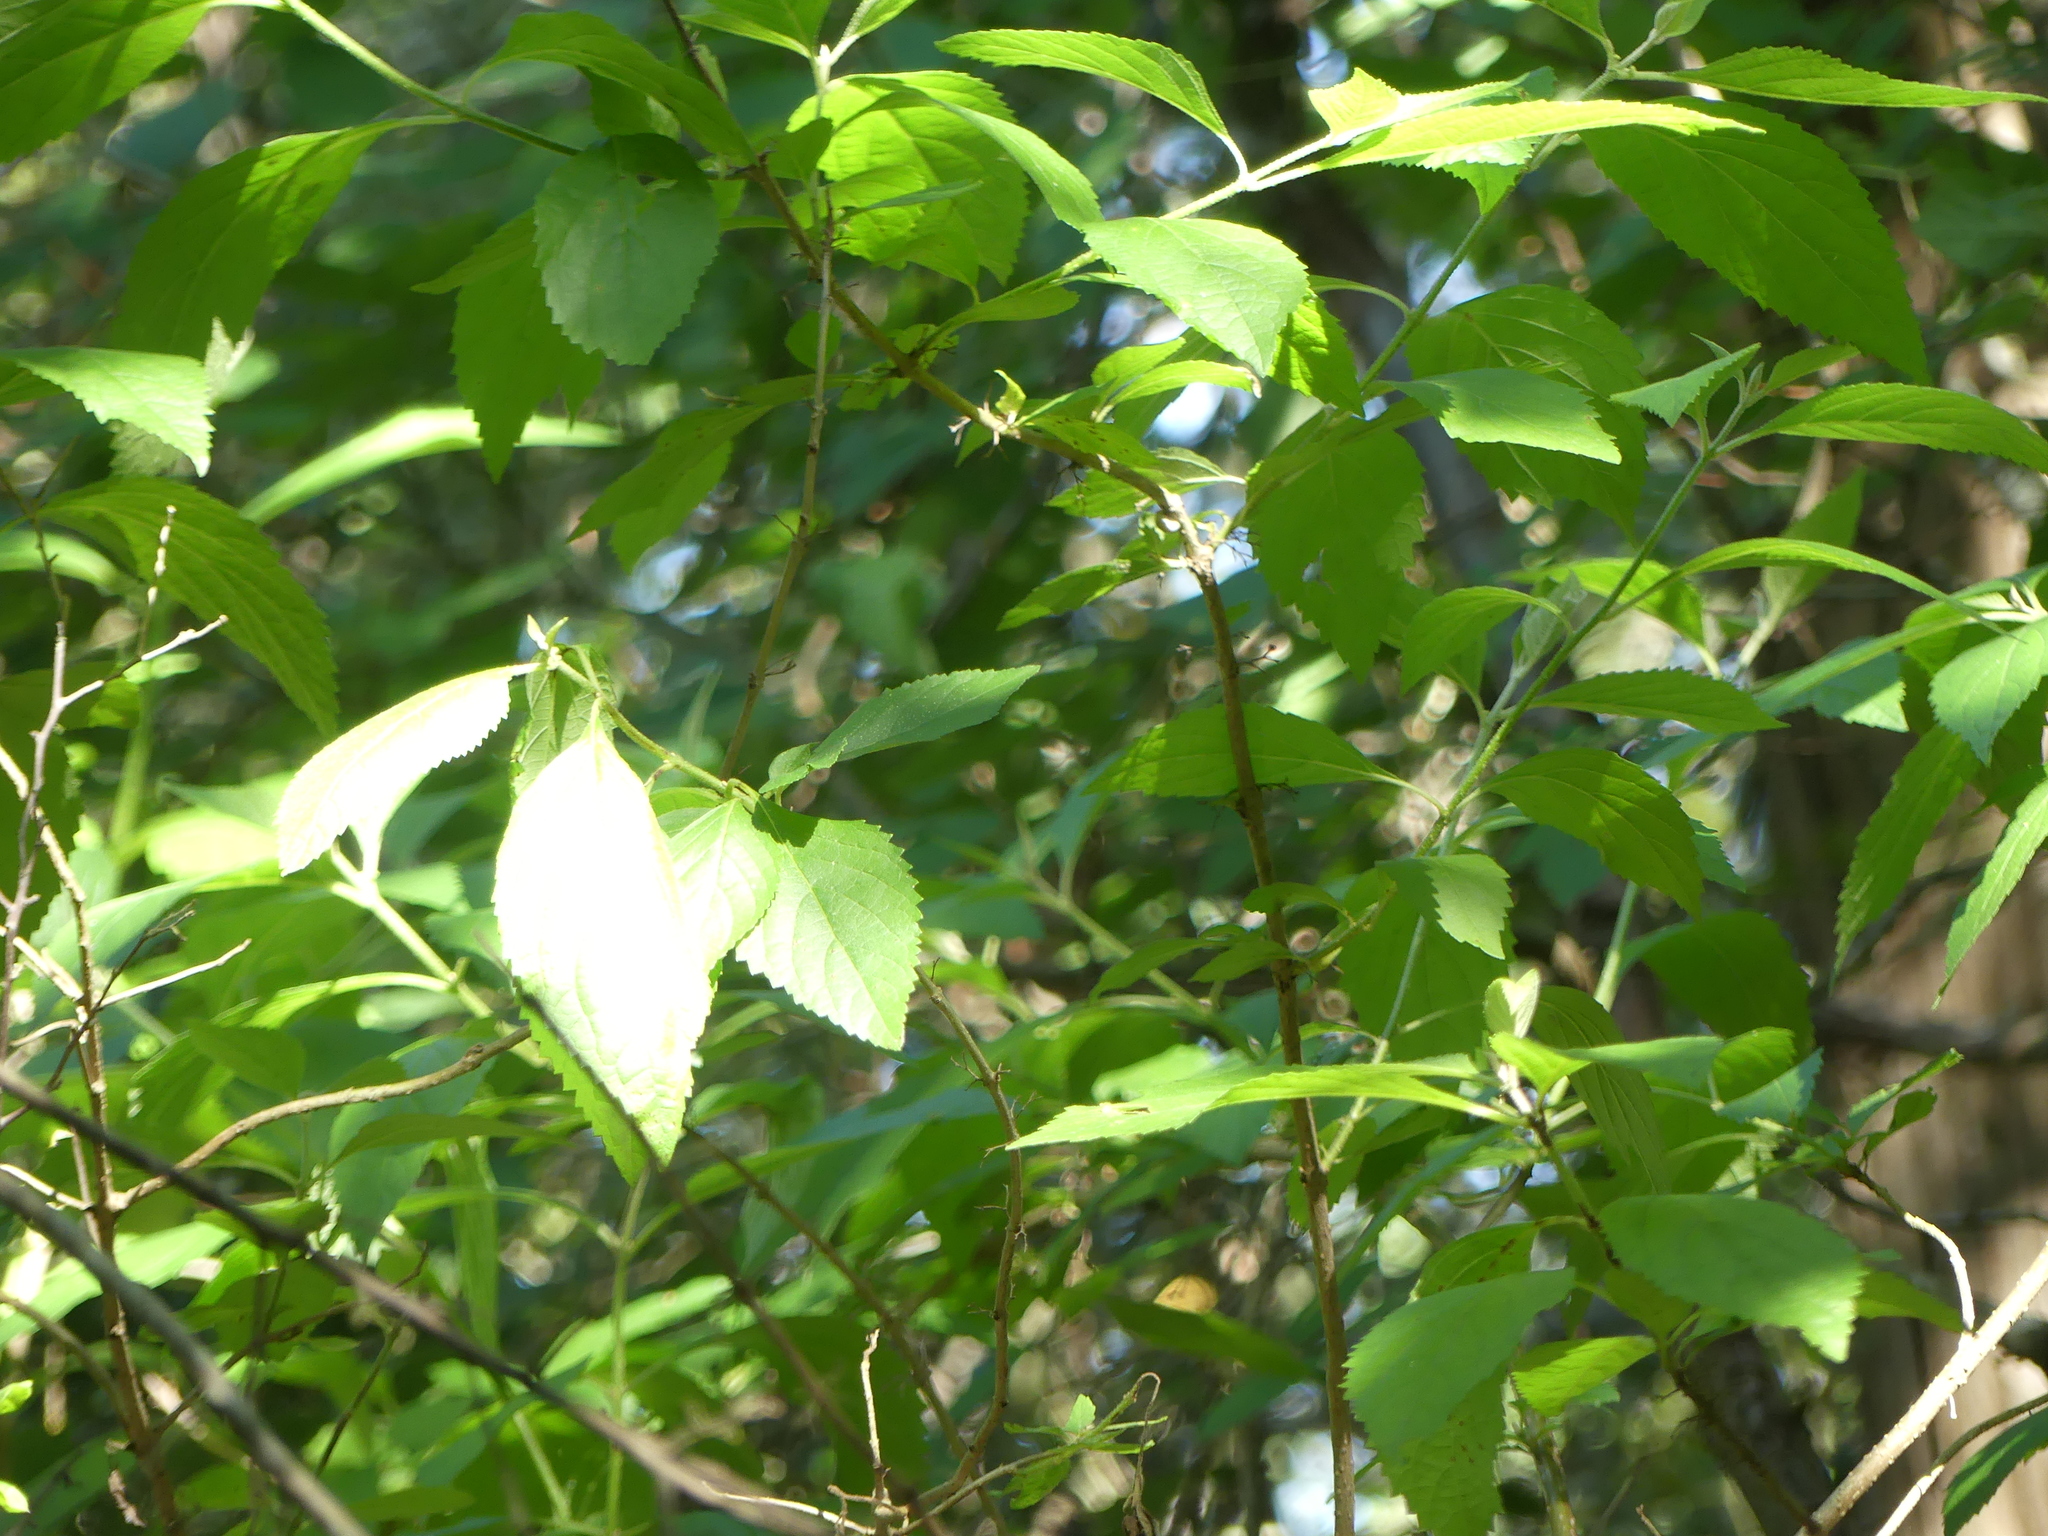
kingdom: Plantae
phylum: Tracheophyta
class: Magnoliopsida
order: Lamiales
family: Lamiaceae
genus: Callicarpa
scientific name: Callicarpa americana
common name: American beautyberry
